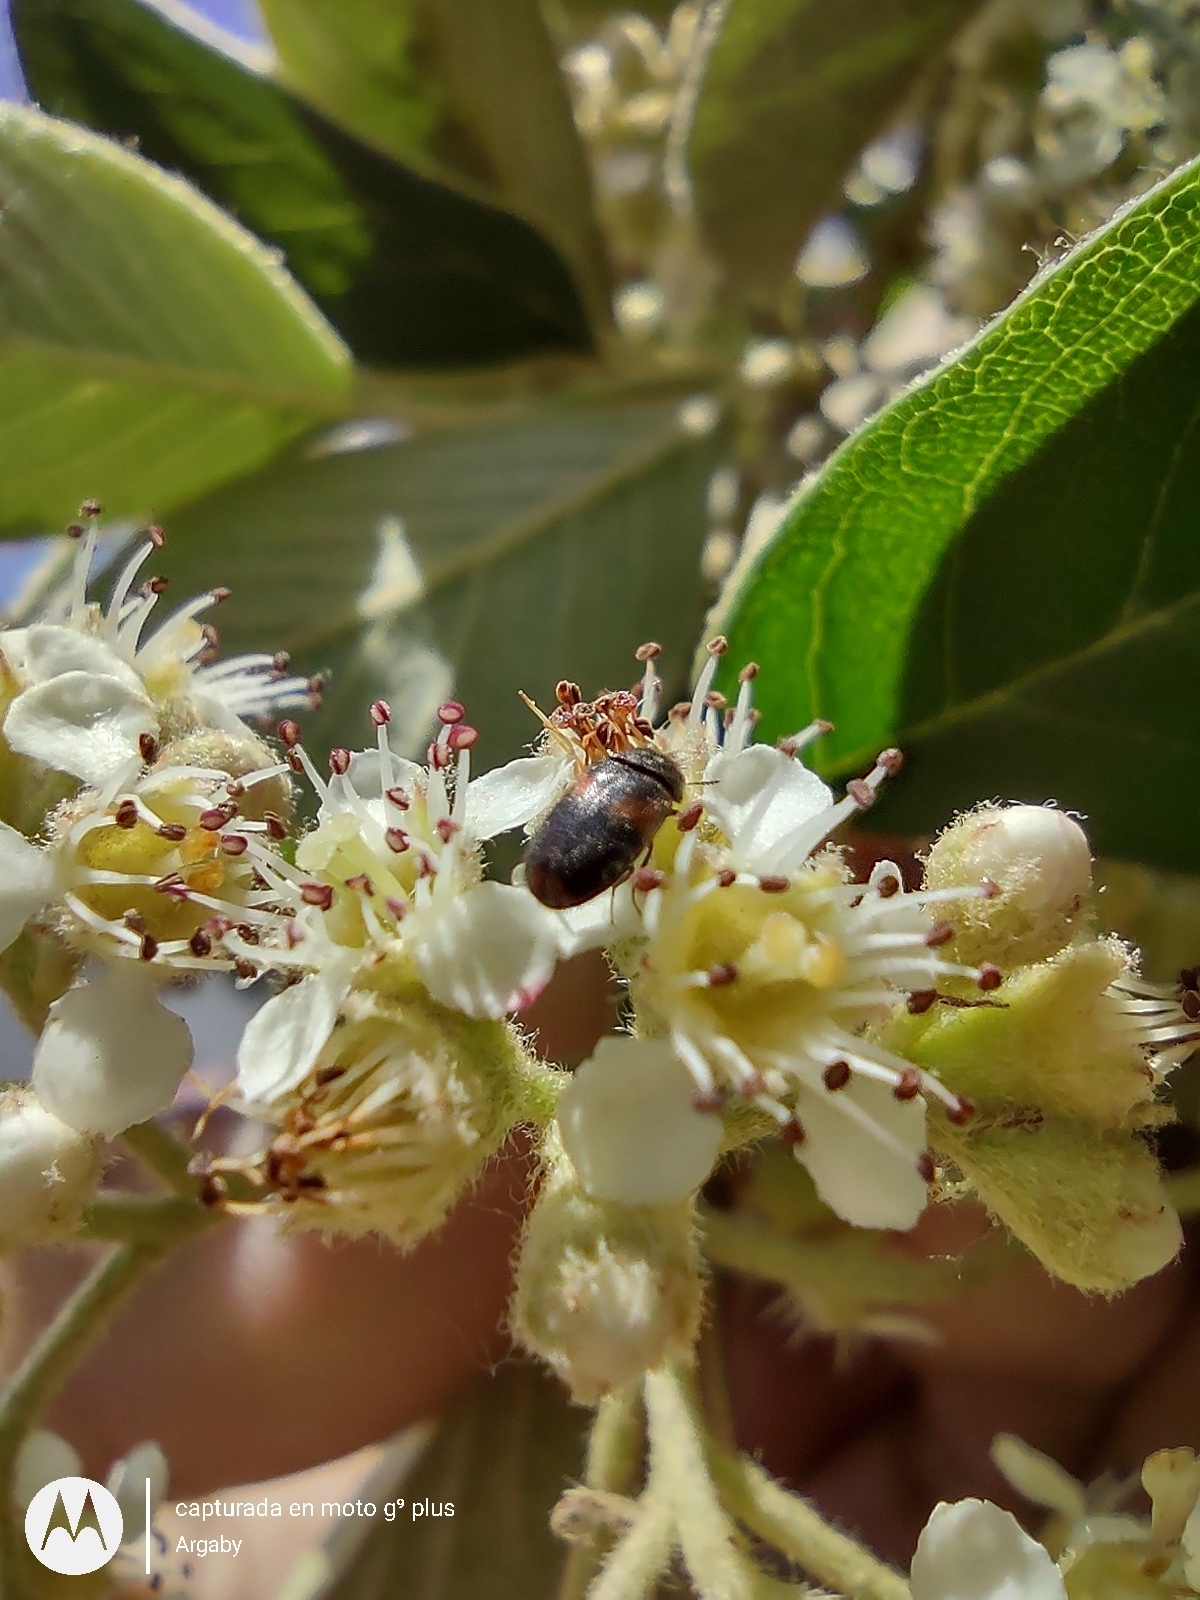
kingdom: Animalia
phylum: Arthropoda
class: Insecta
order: Coleoptera
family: Dermestidae
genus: Trogoderma
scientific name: Trogoderma
